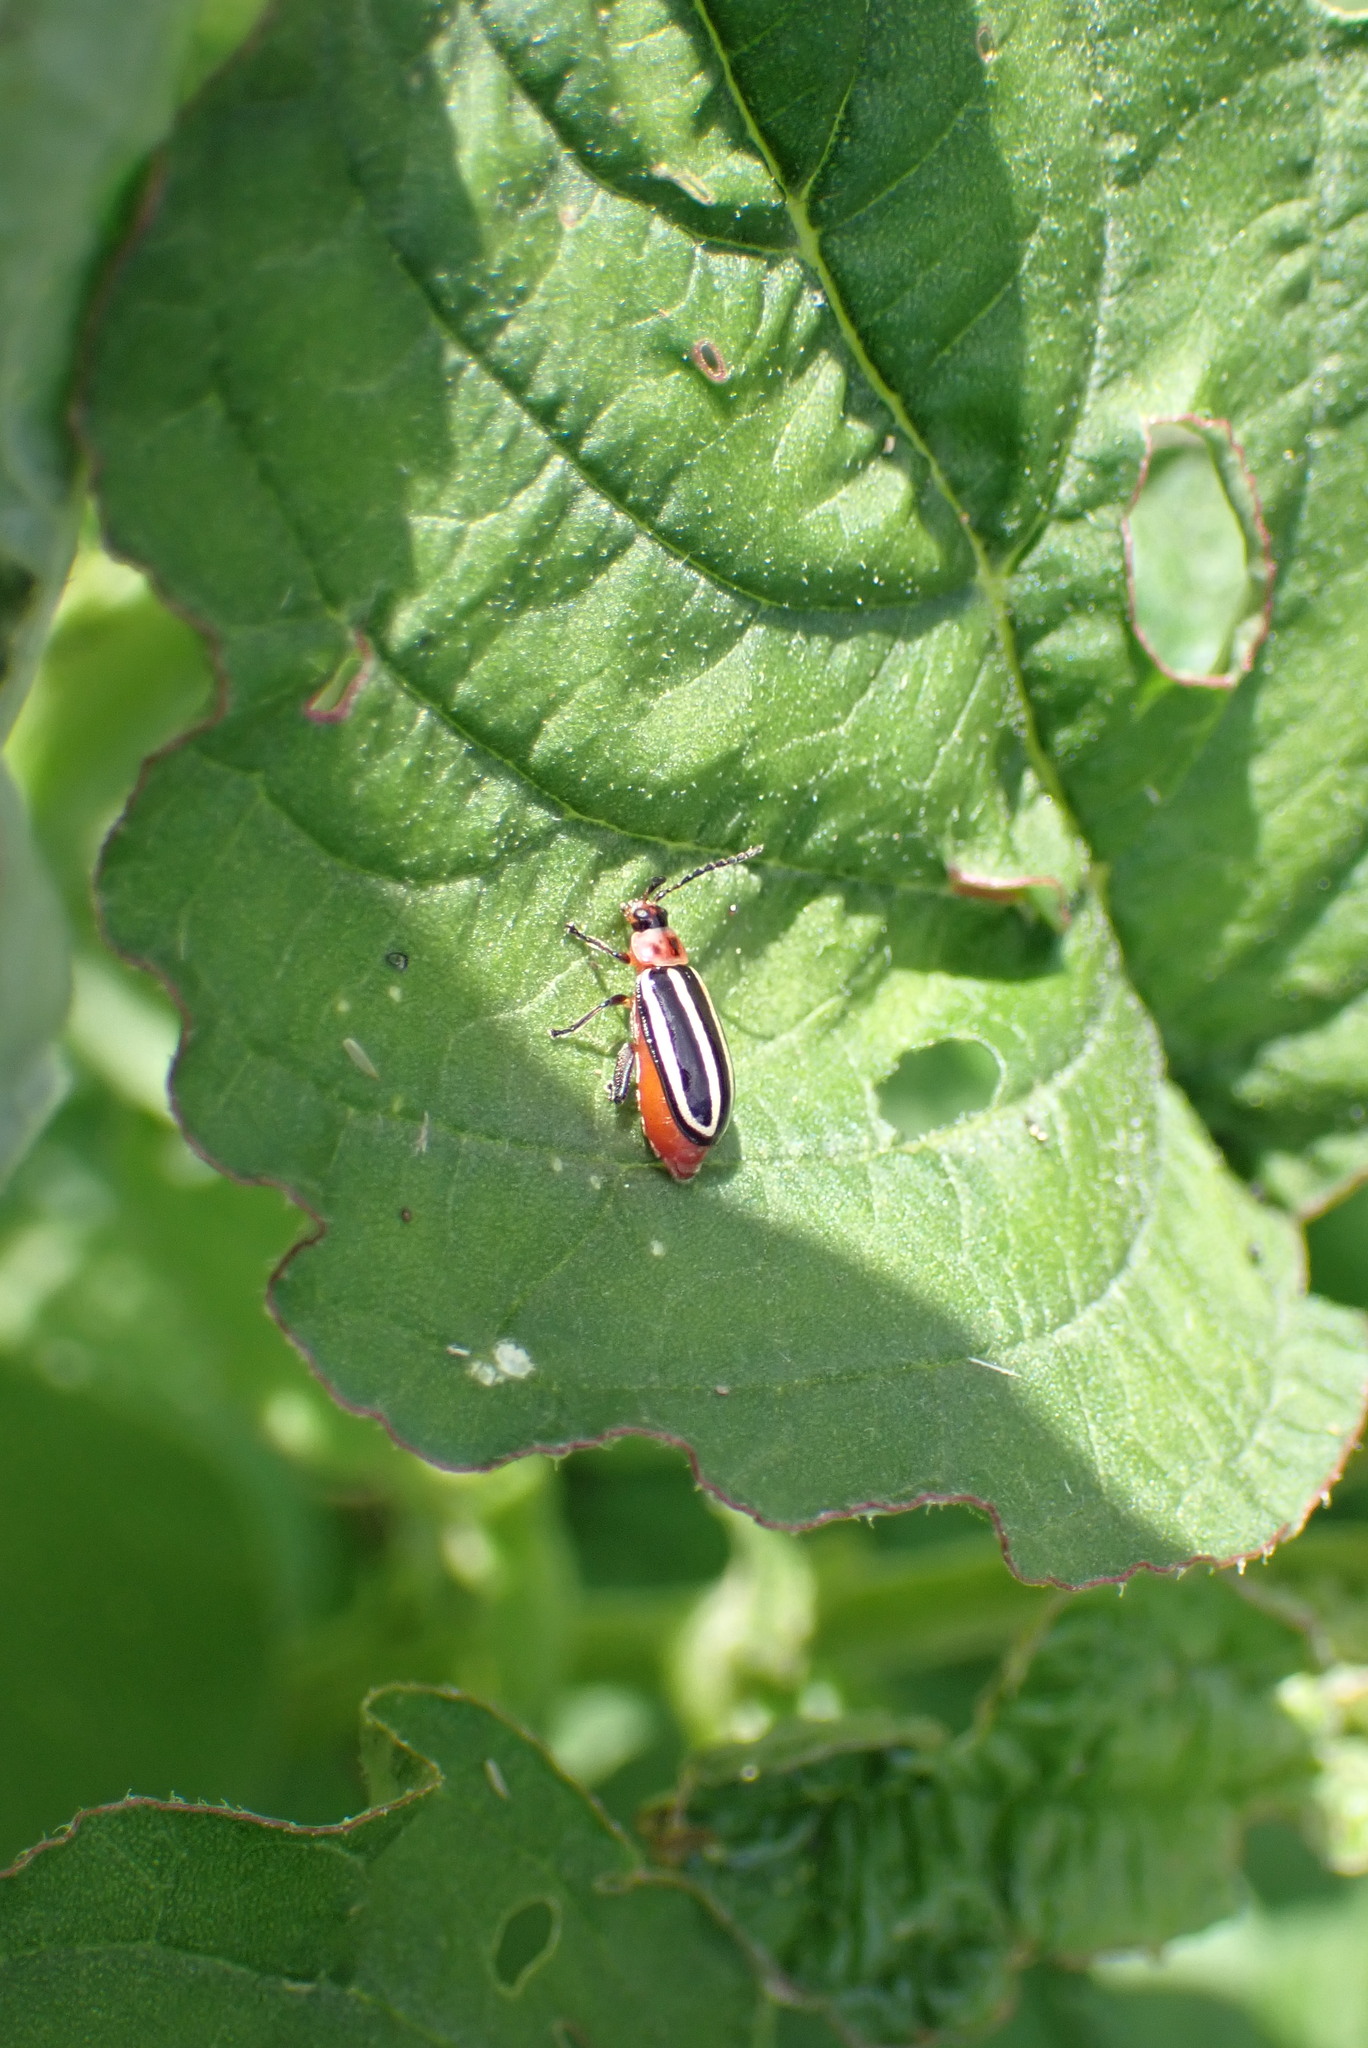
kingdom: Animalia
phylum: Arthropoda
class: Insecta
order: Coleoptera
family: Chrysomelidae
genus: Disonycha
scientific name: Disonycha glabrata
